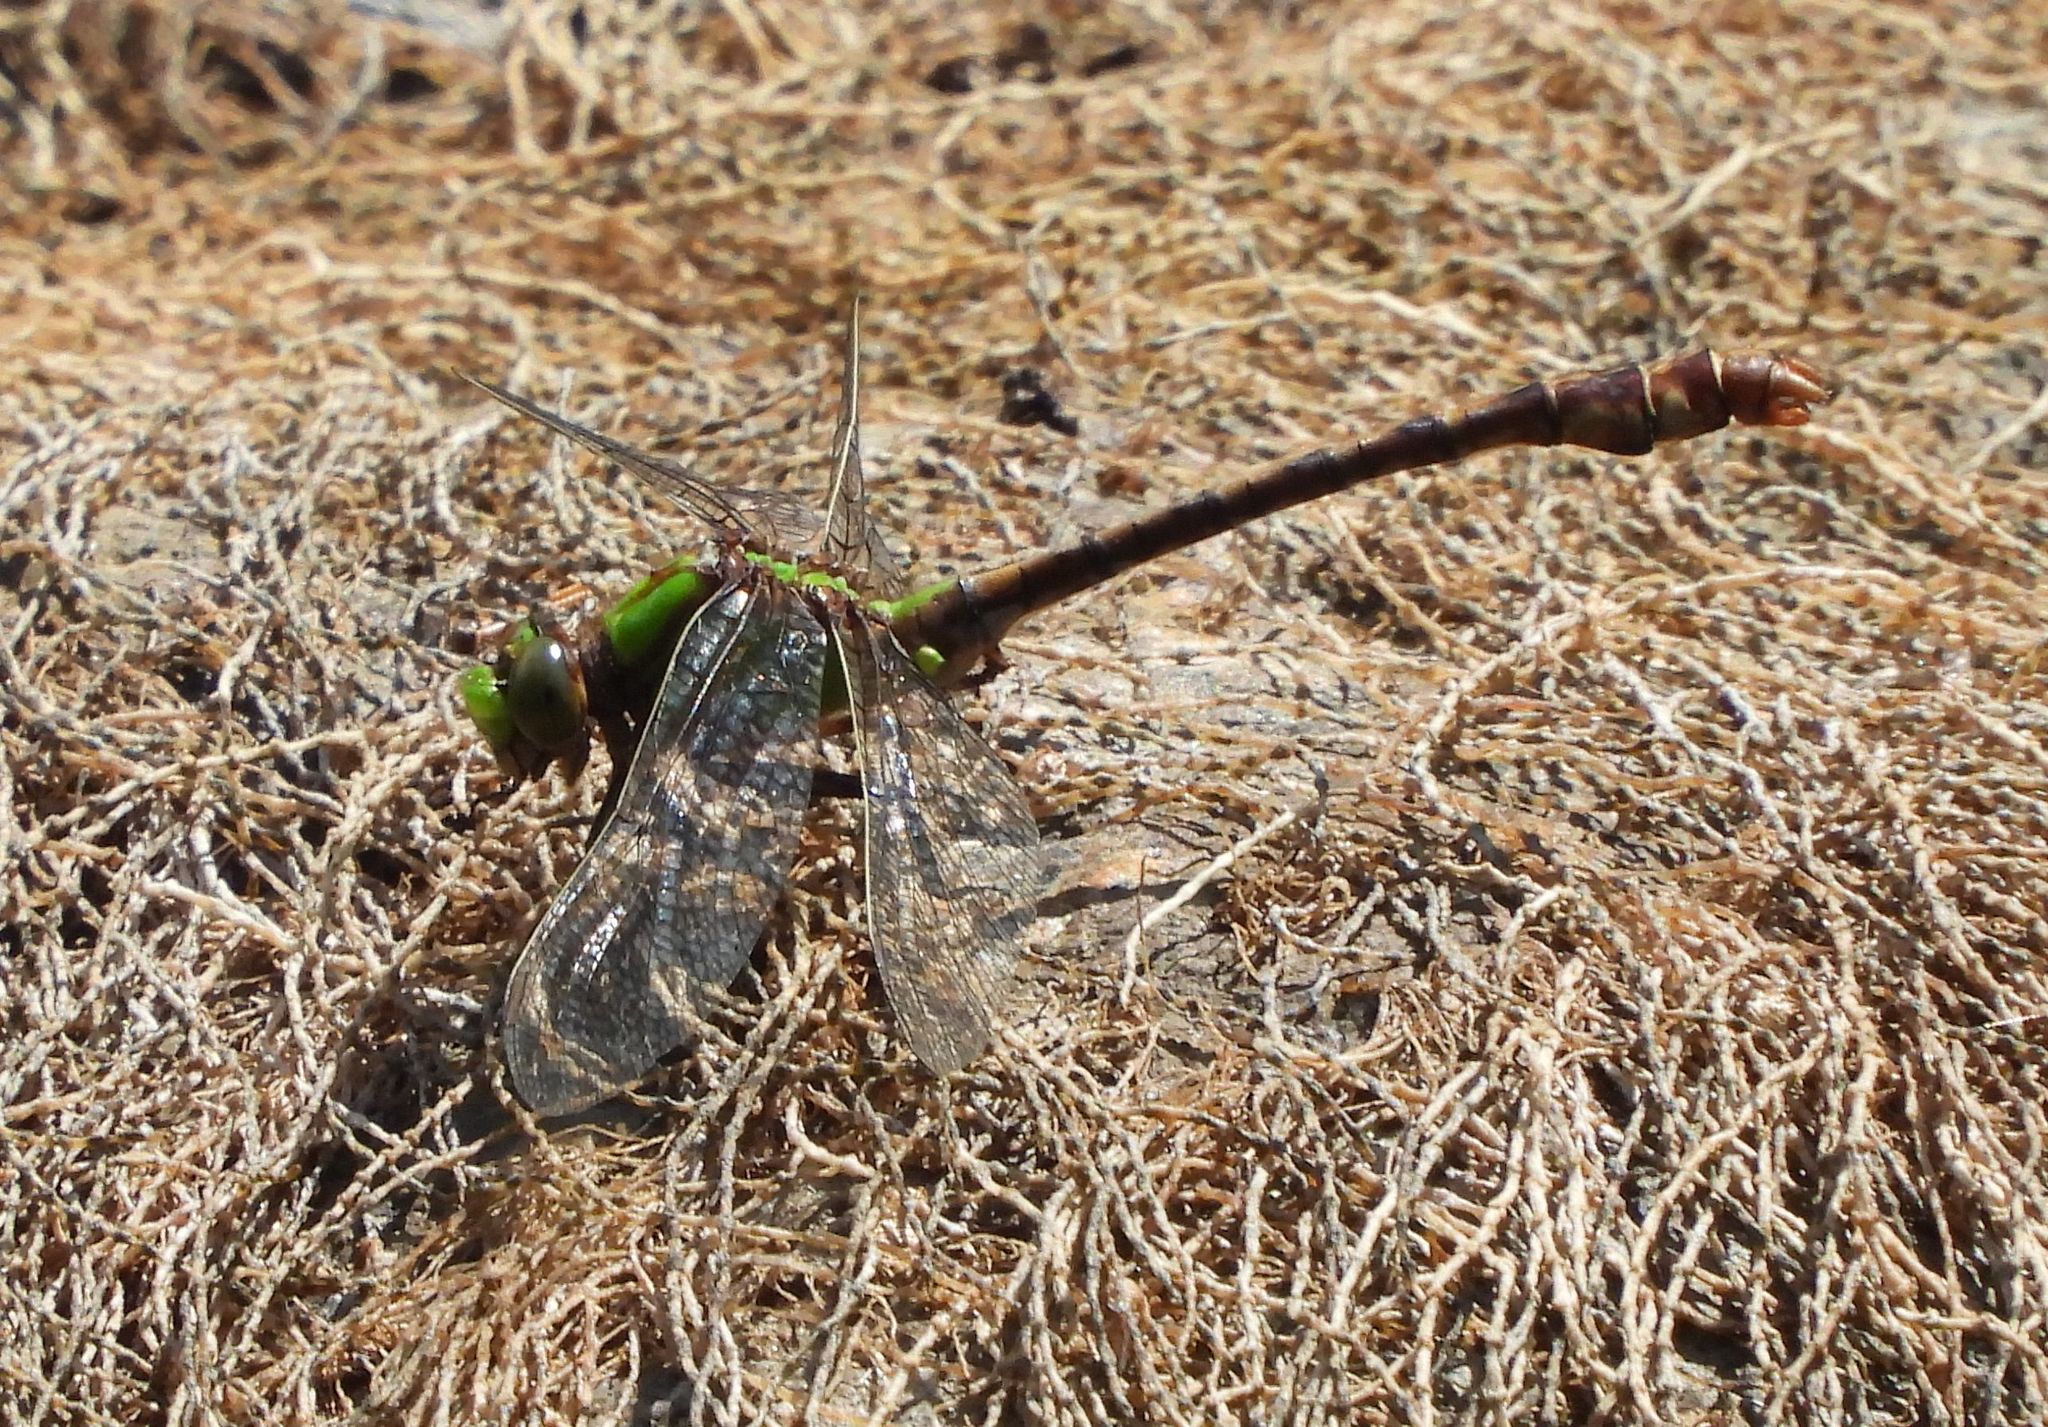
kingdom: Animalia
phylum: Arthropoda
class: Insecta
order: Odonata
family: Gomphidae
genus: Ophiogomphus
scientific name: Ophiogomphus rupinsulensis
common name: Rusty snaketail
